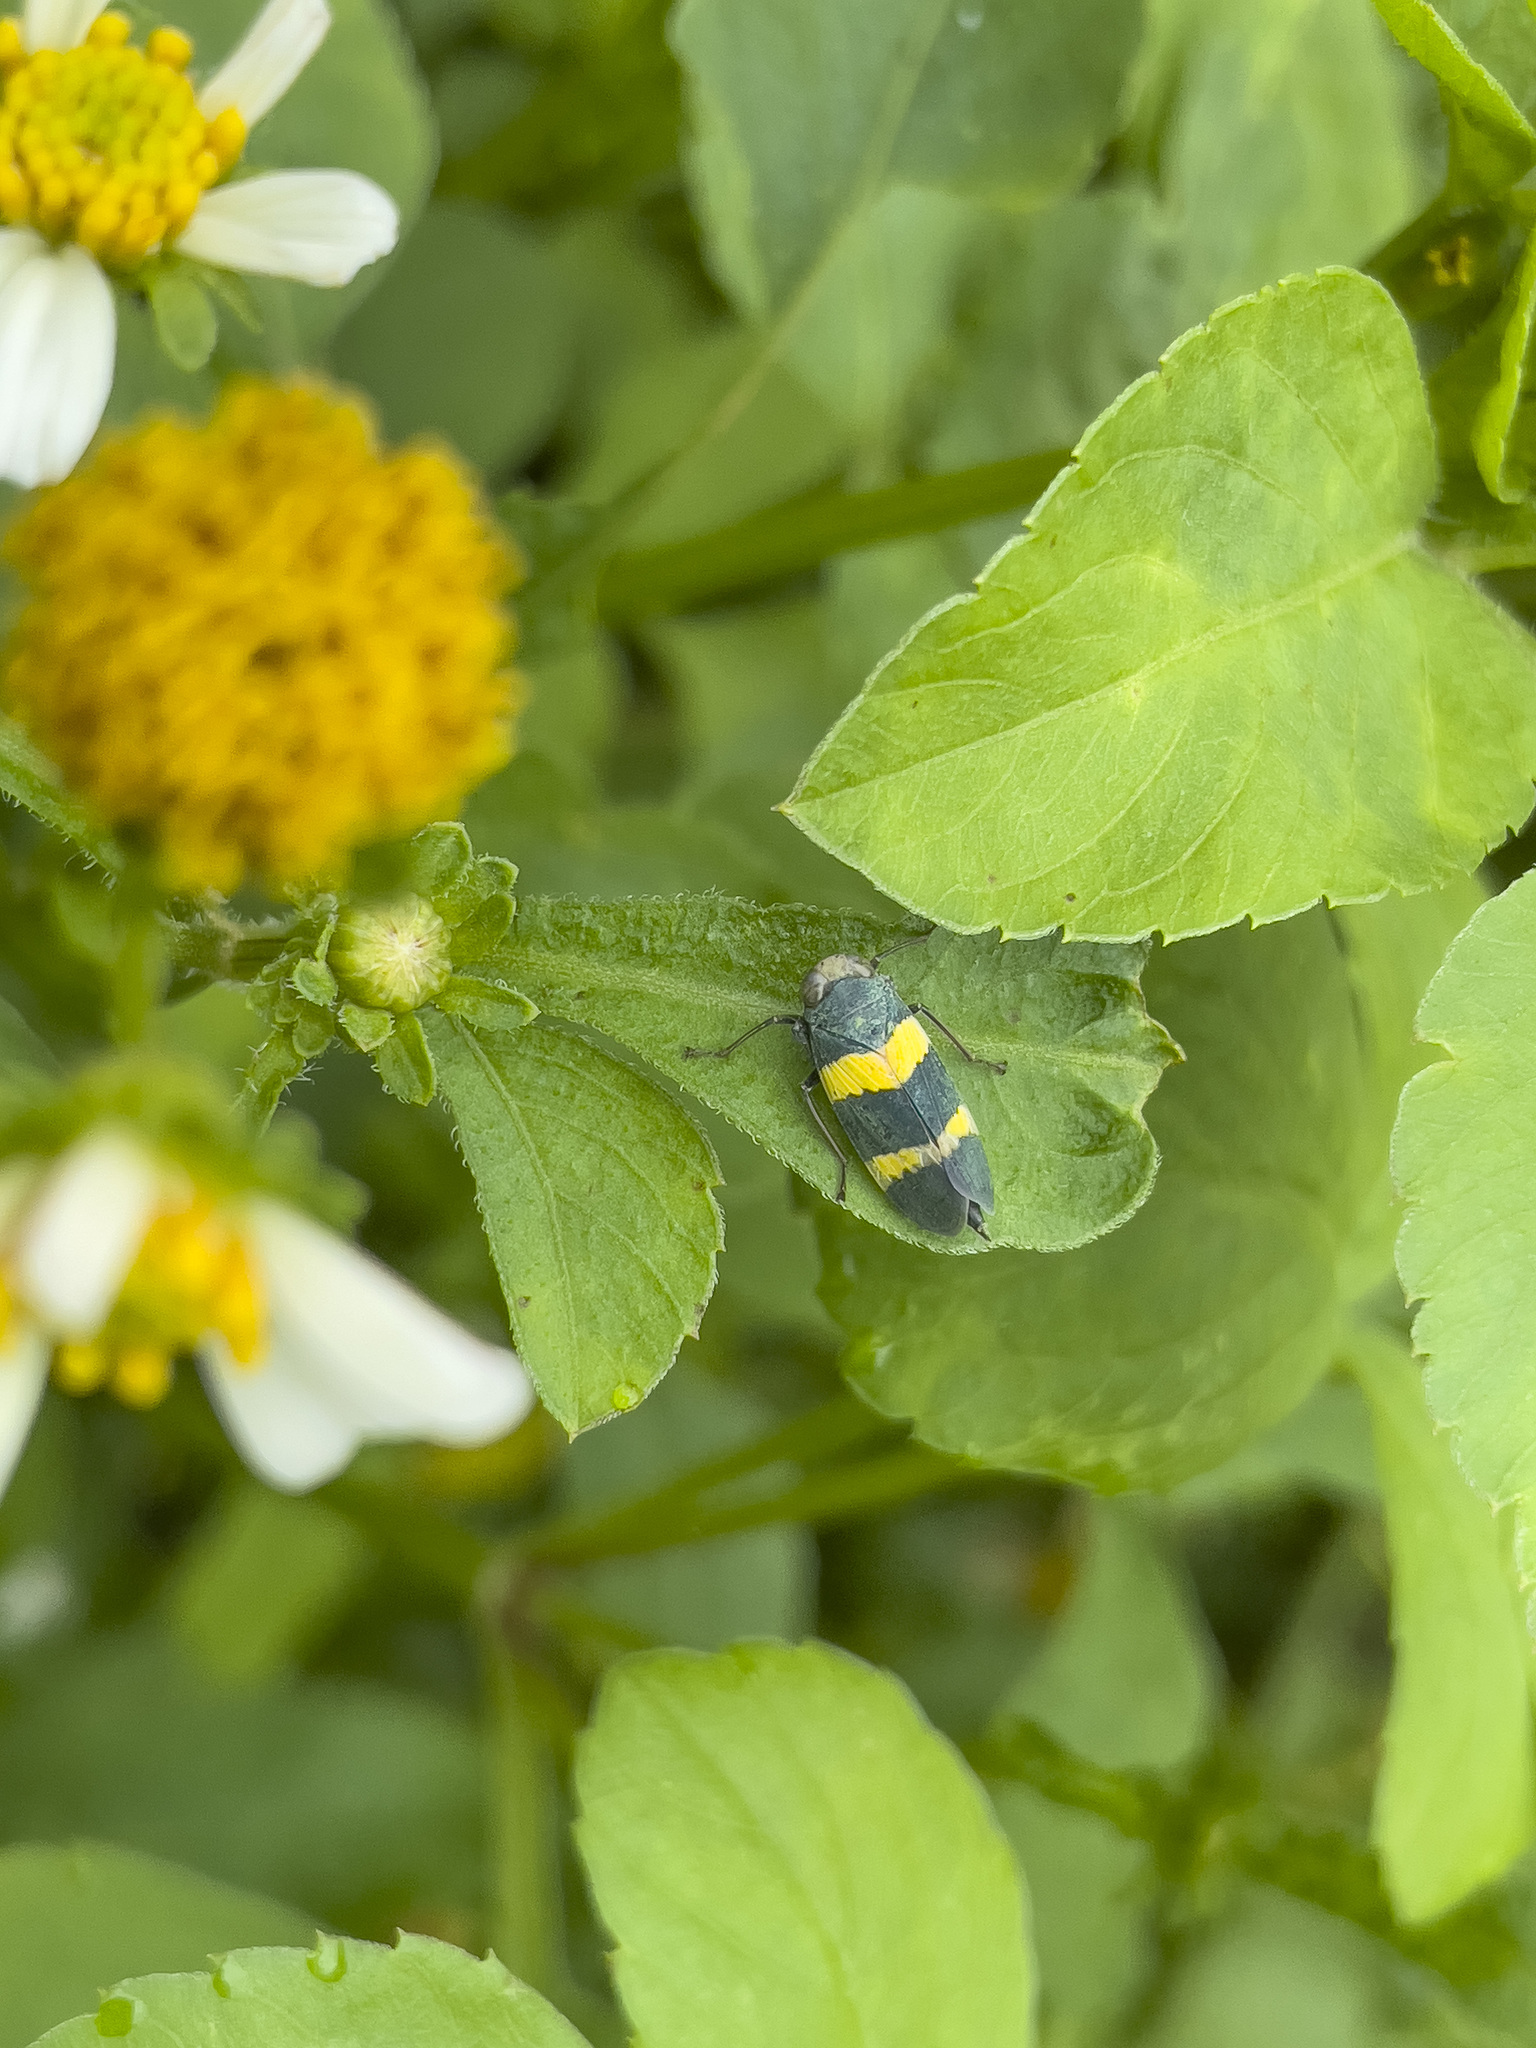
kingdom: Animalia
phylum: Arthropoda
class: Insecta
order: Hemiptera
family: Cicadellidae
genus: Olidiana
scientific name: Olidiana brevis
